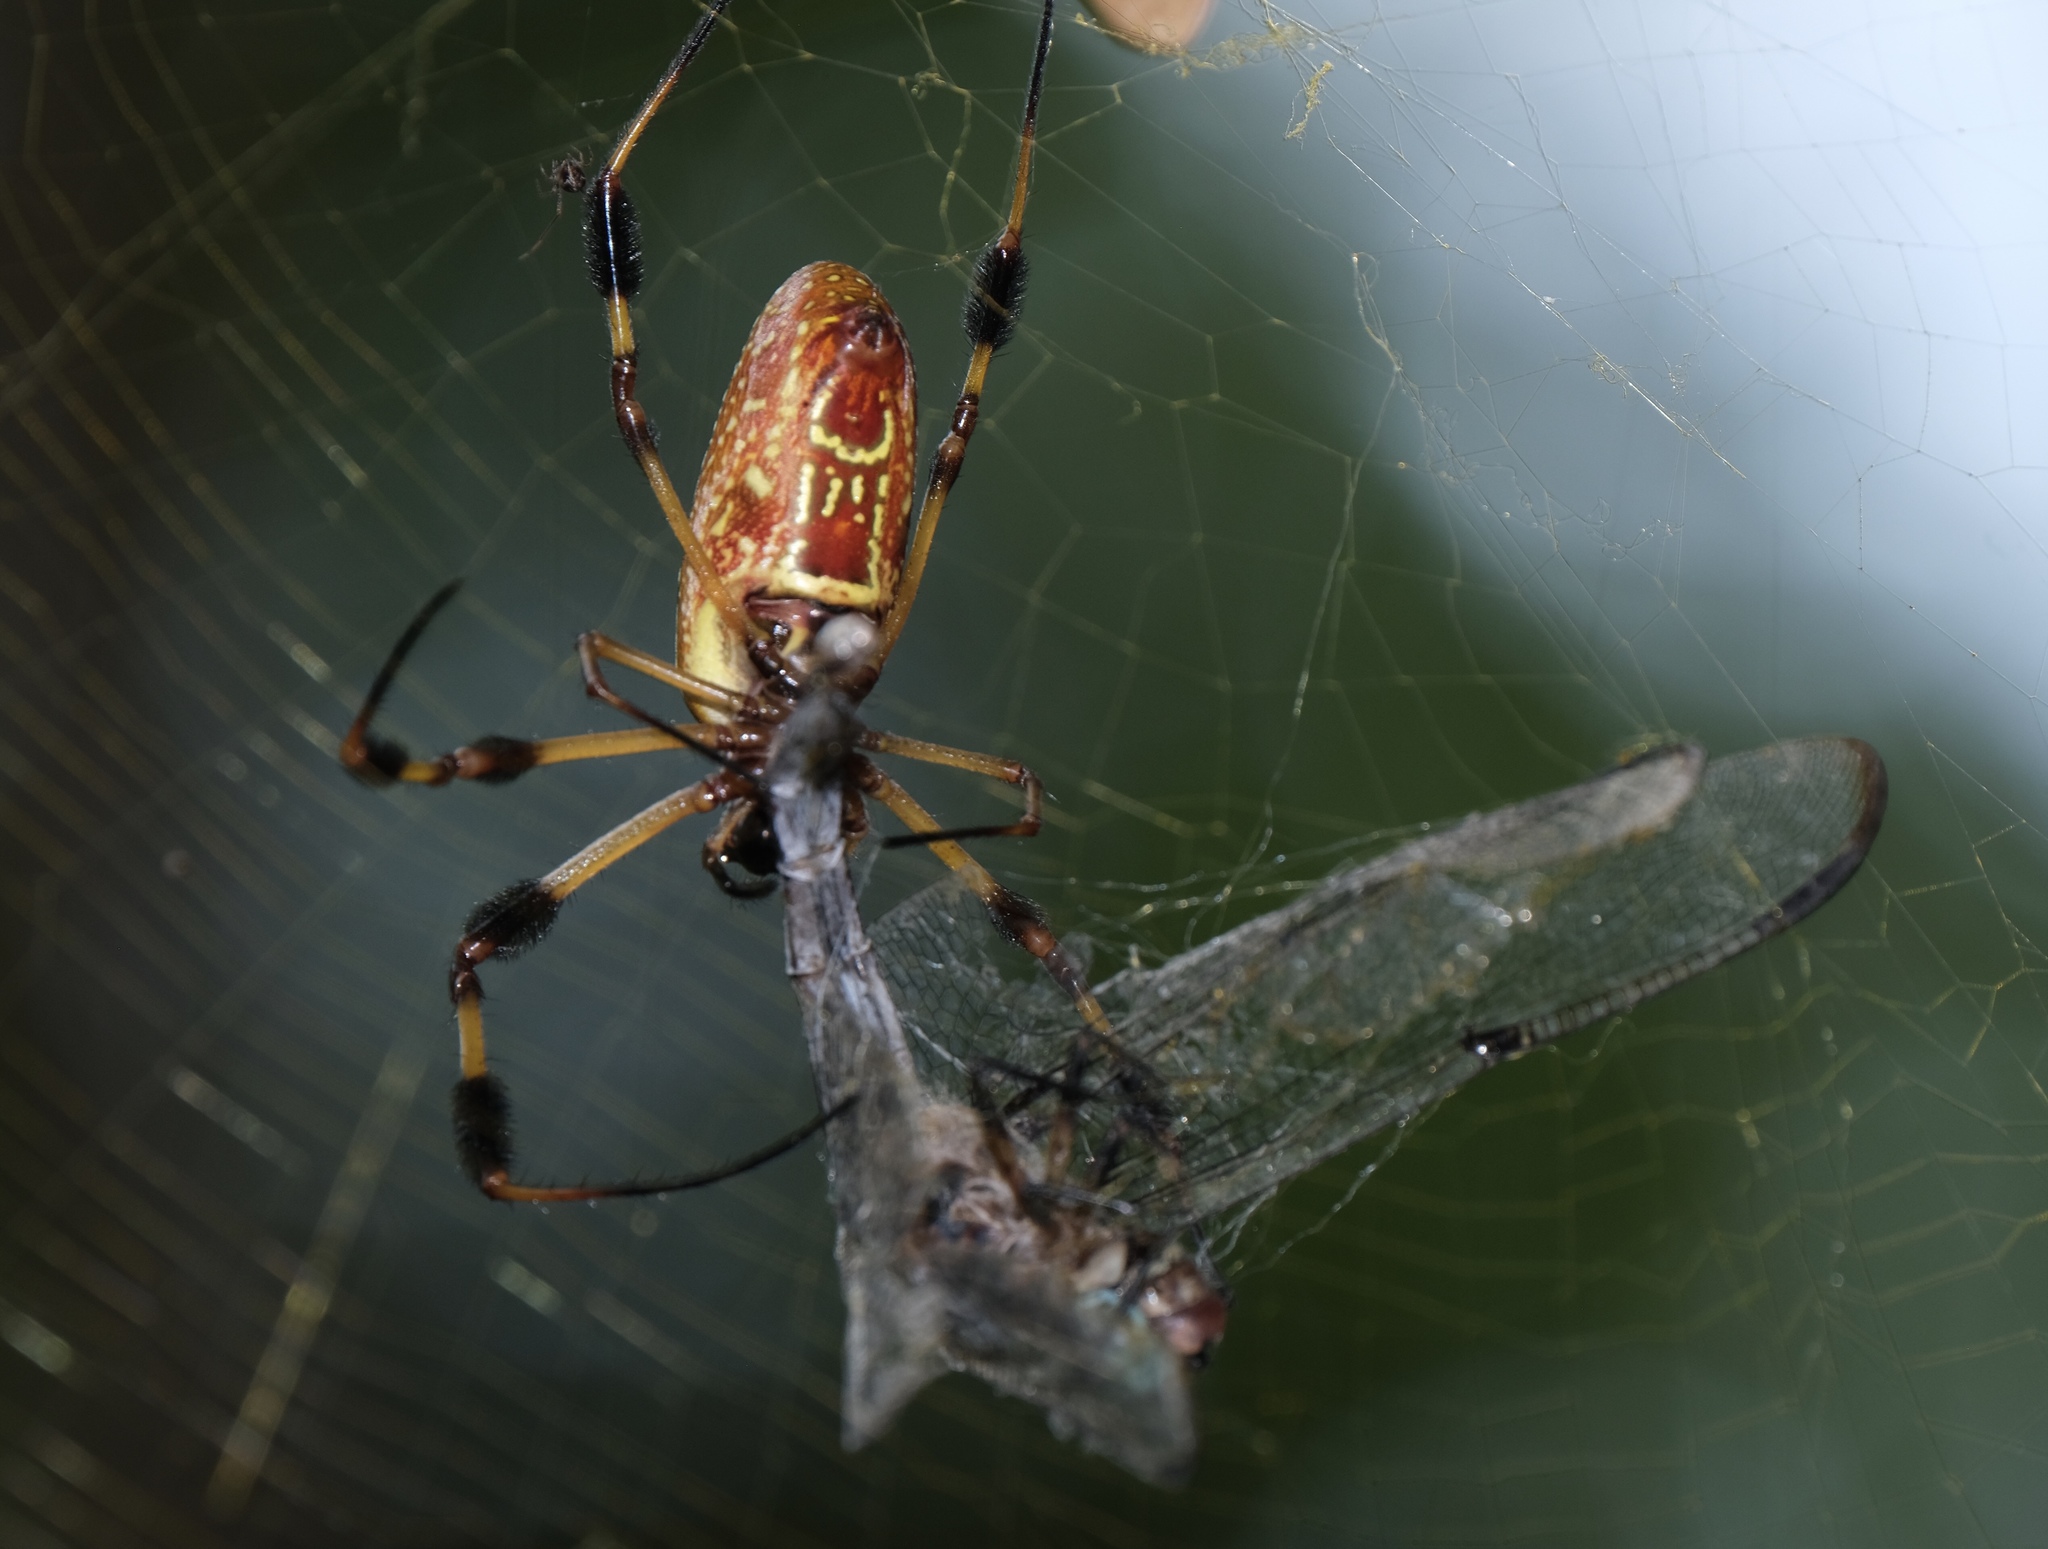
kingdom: Animalia
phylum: Arthropoda
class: Arachnida
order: Araneae
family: Araneidae
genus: Trichonephila
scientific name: Trichonephila clavipes
